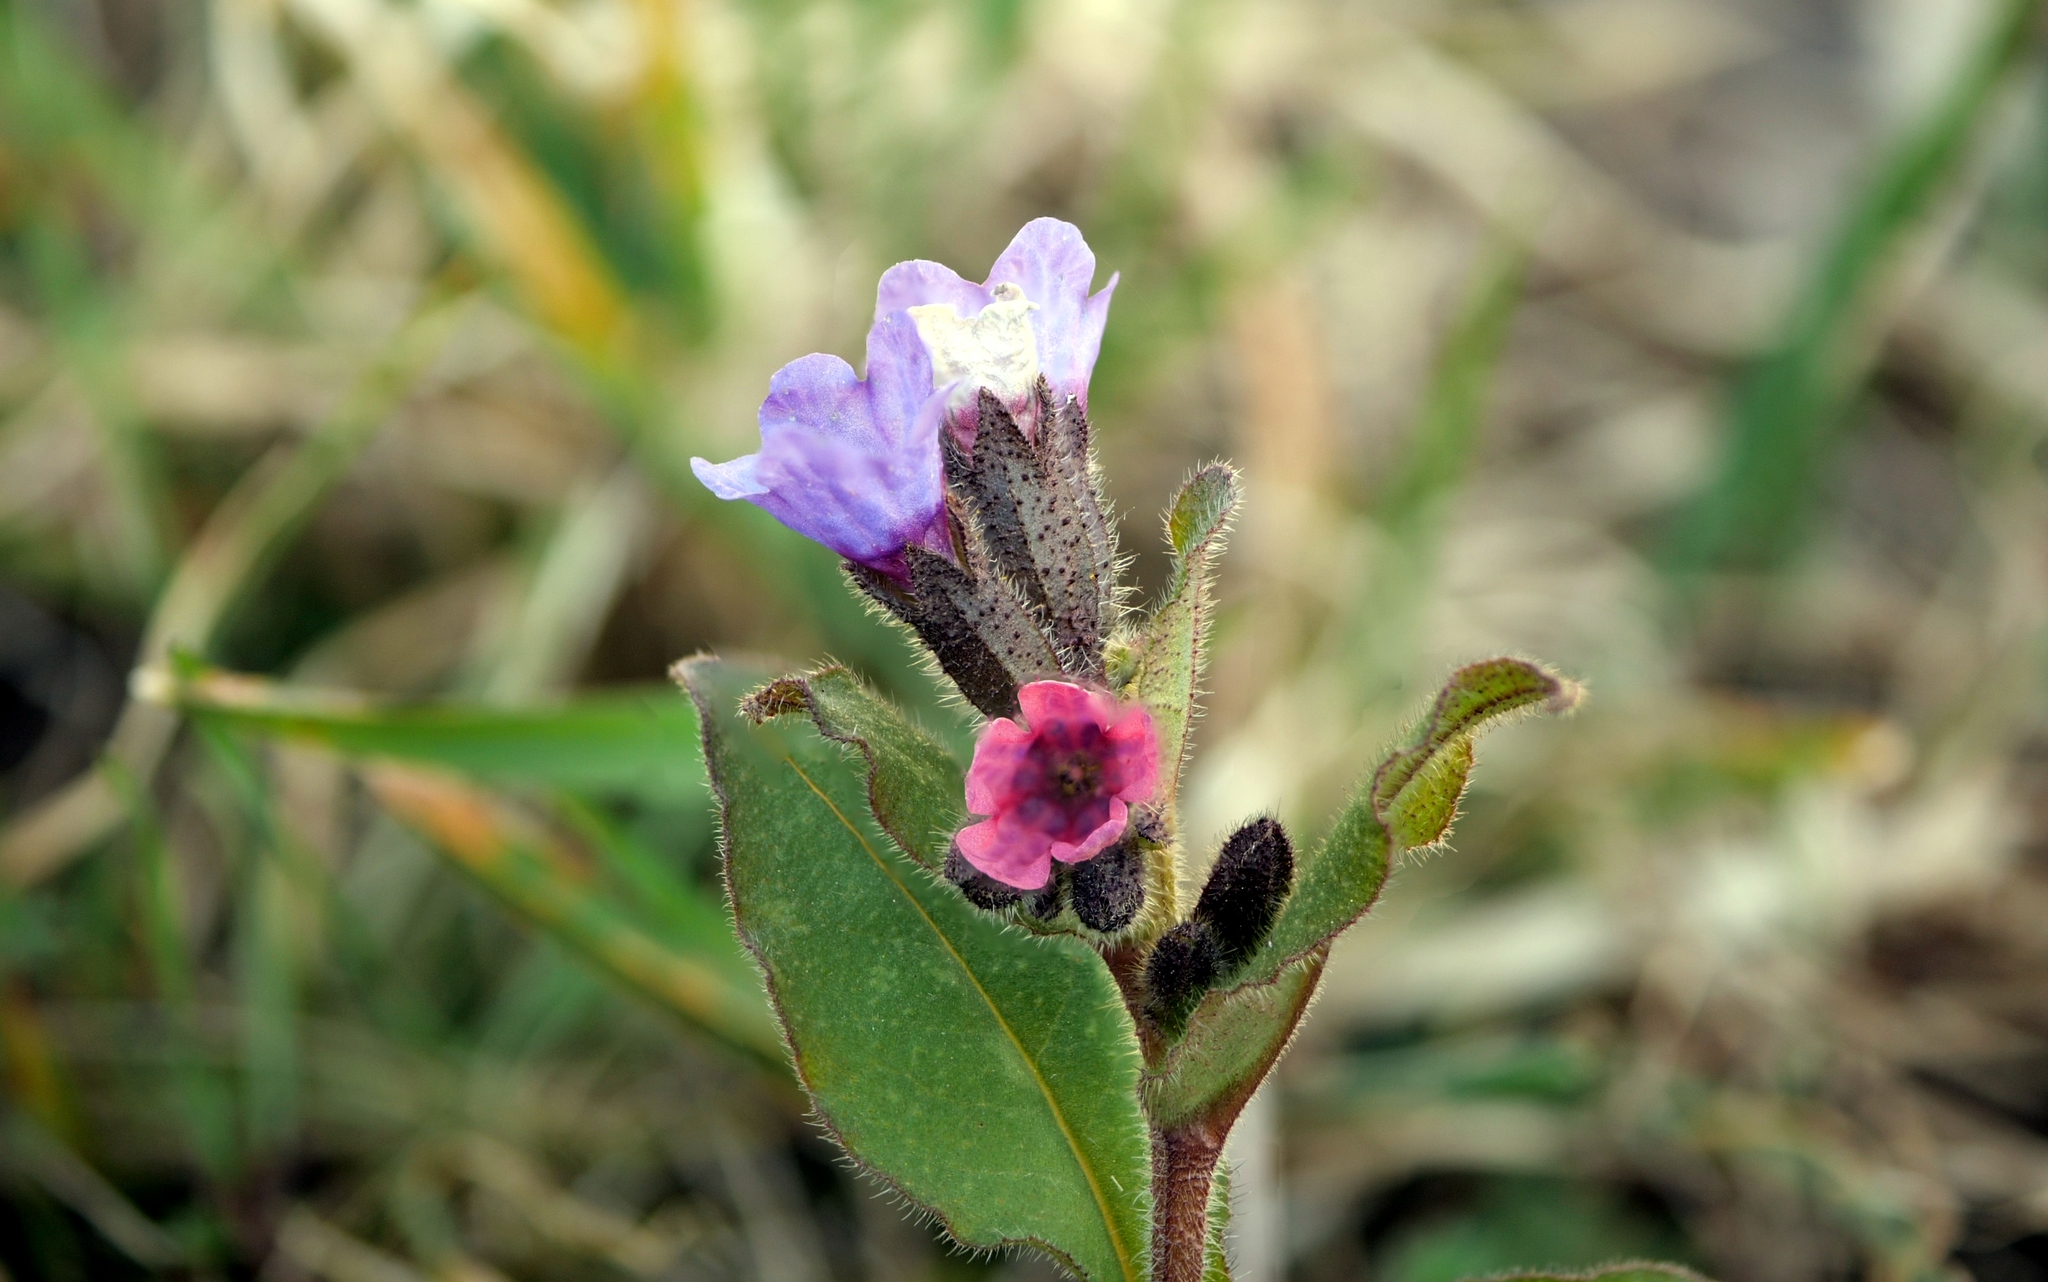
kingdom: Plantae
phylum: Tracheophyta
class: Magnoliopsida
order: Boraginales
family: Boraginaceae
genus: Pulmonaria
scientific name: Pulmonaria obscura
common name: Suffolk lungwort
